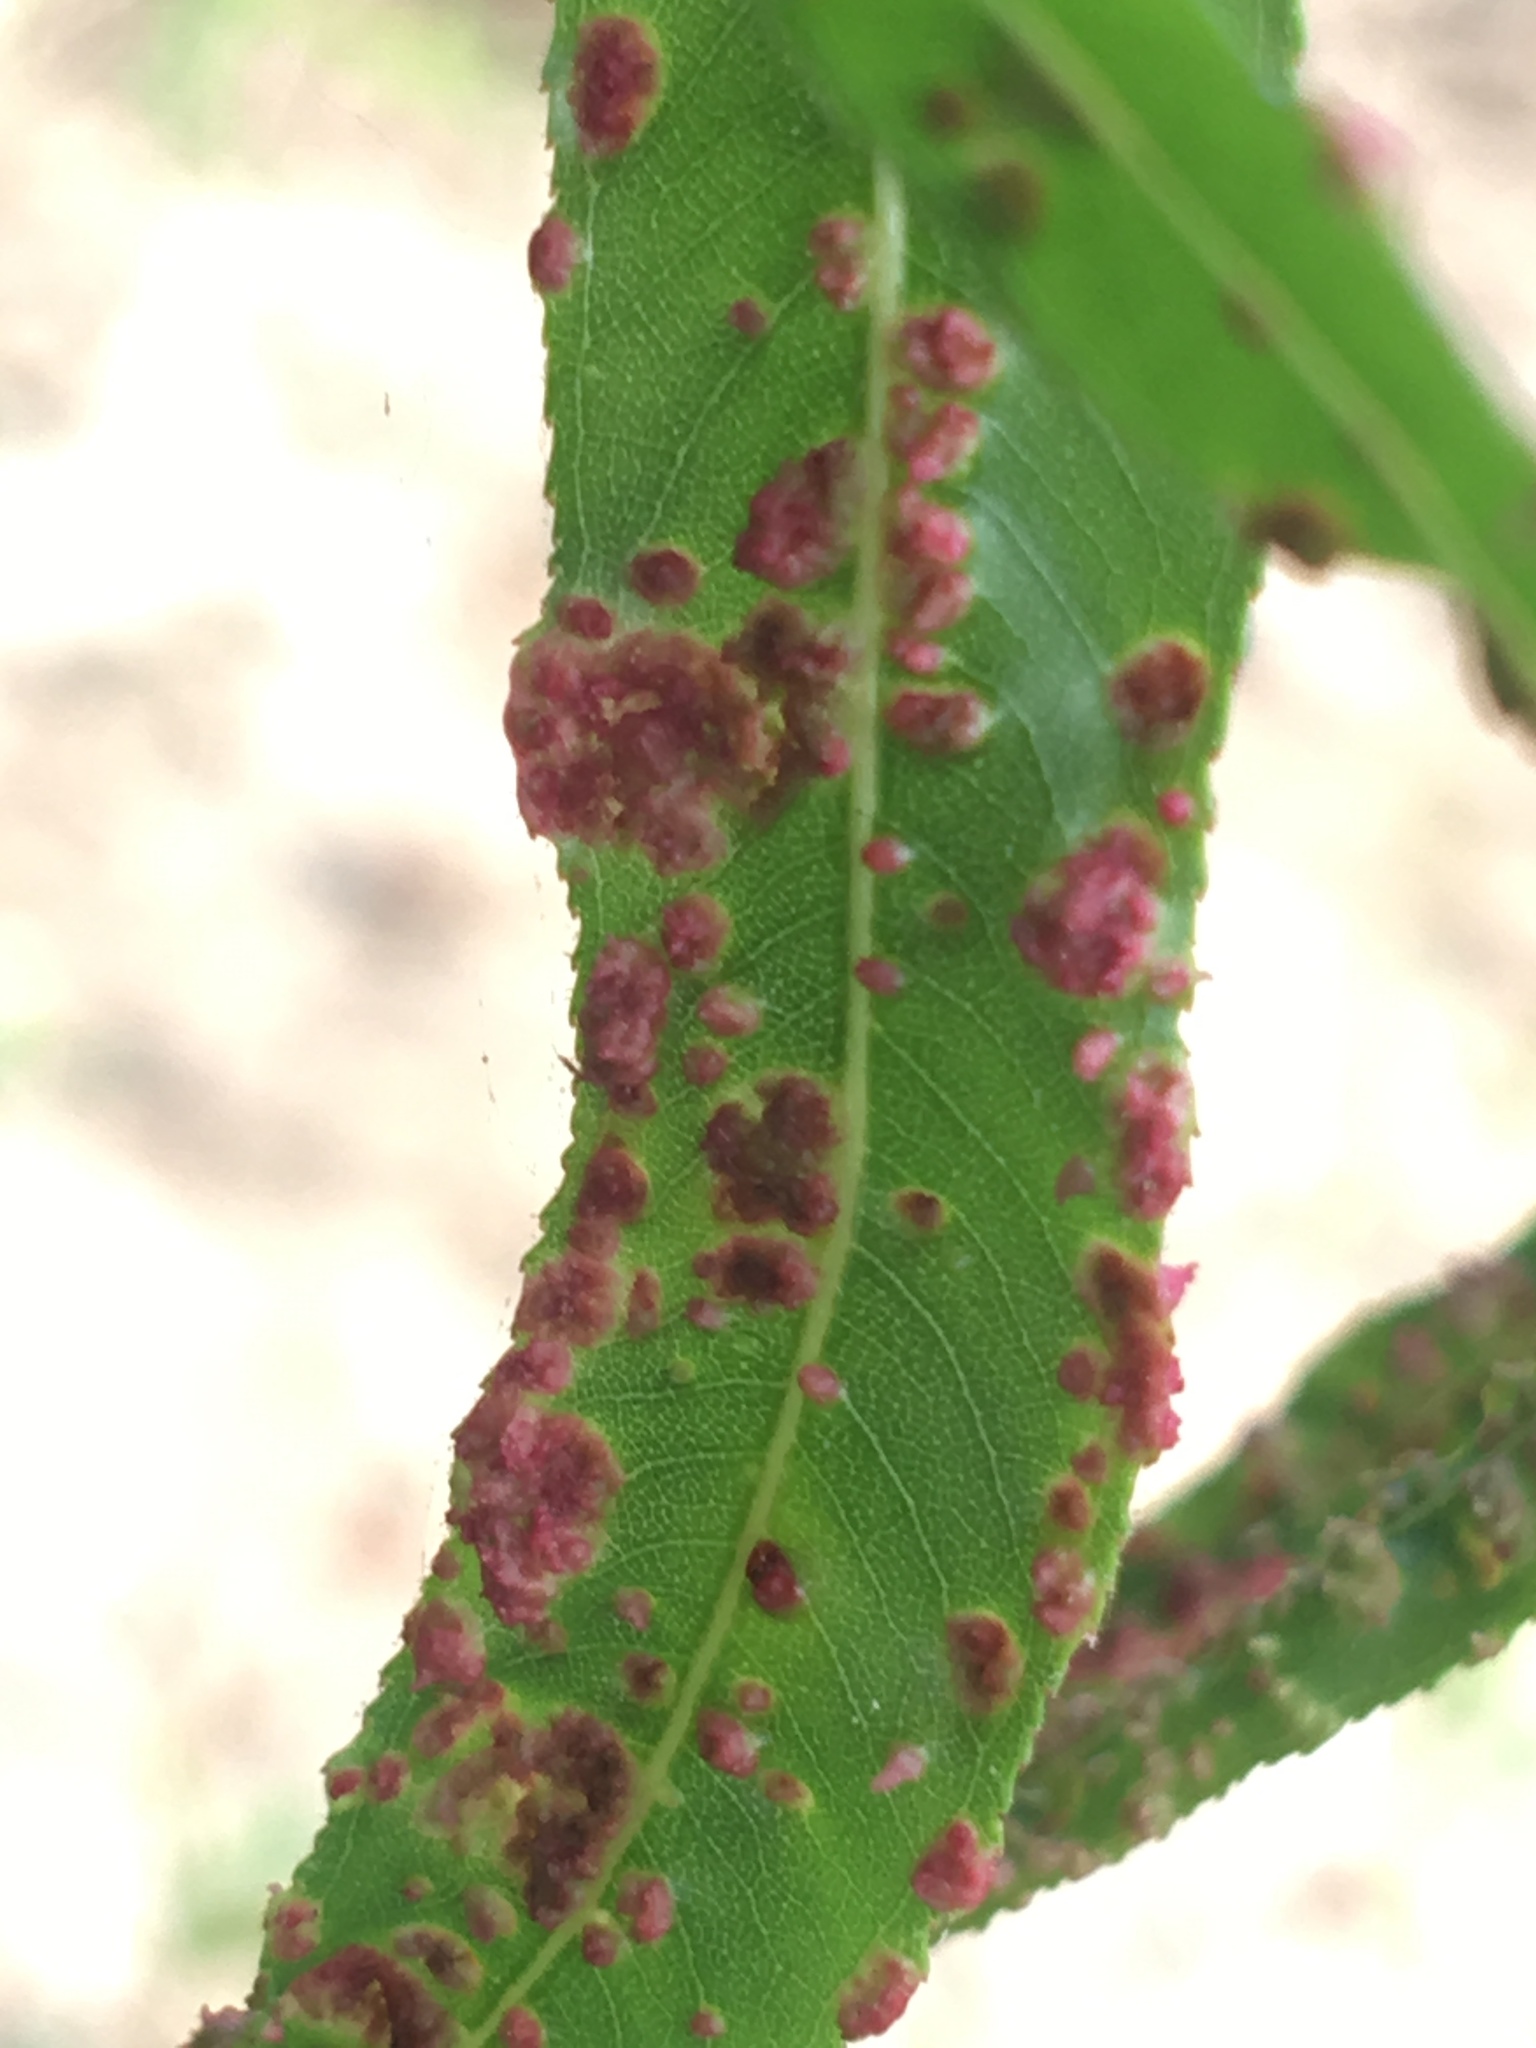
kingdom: Animalia
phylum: Arthropoda
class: Arachnida
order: Trombidiformes
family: Eriophyidae
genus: Aculus
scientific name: Aculus tetanothrix
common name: Willow bead gall mite
